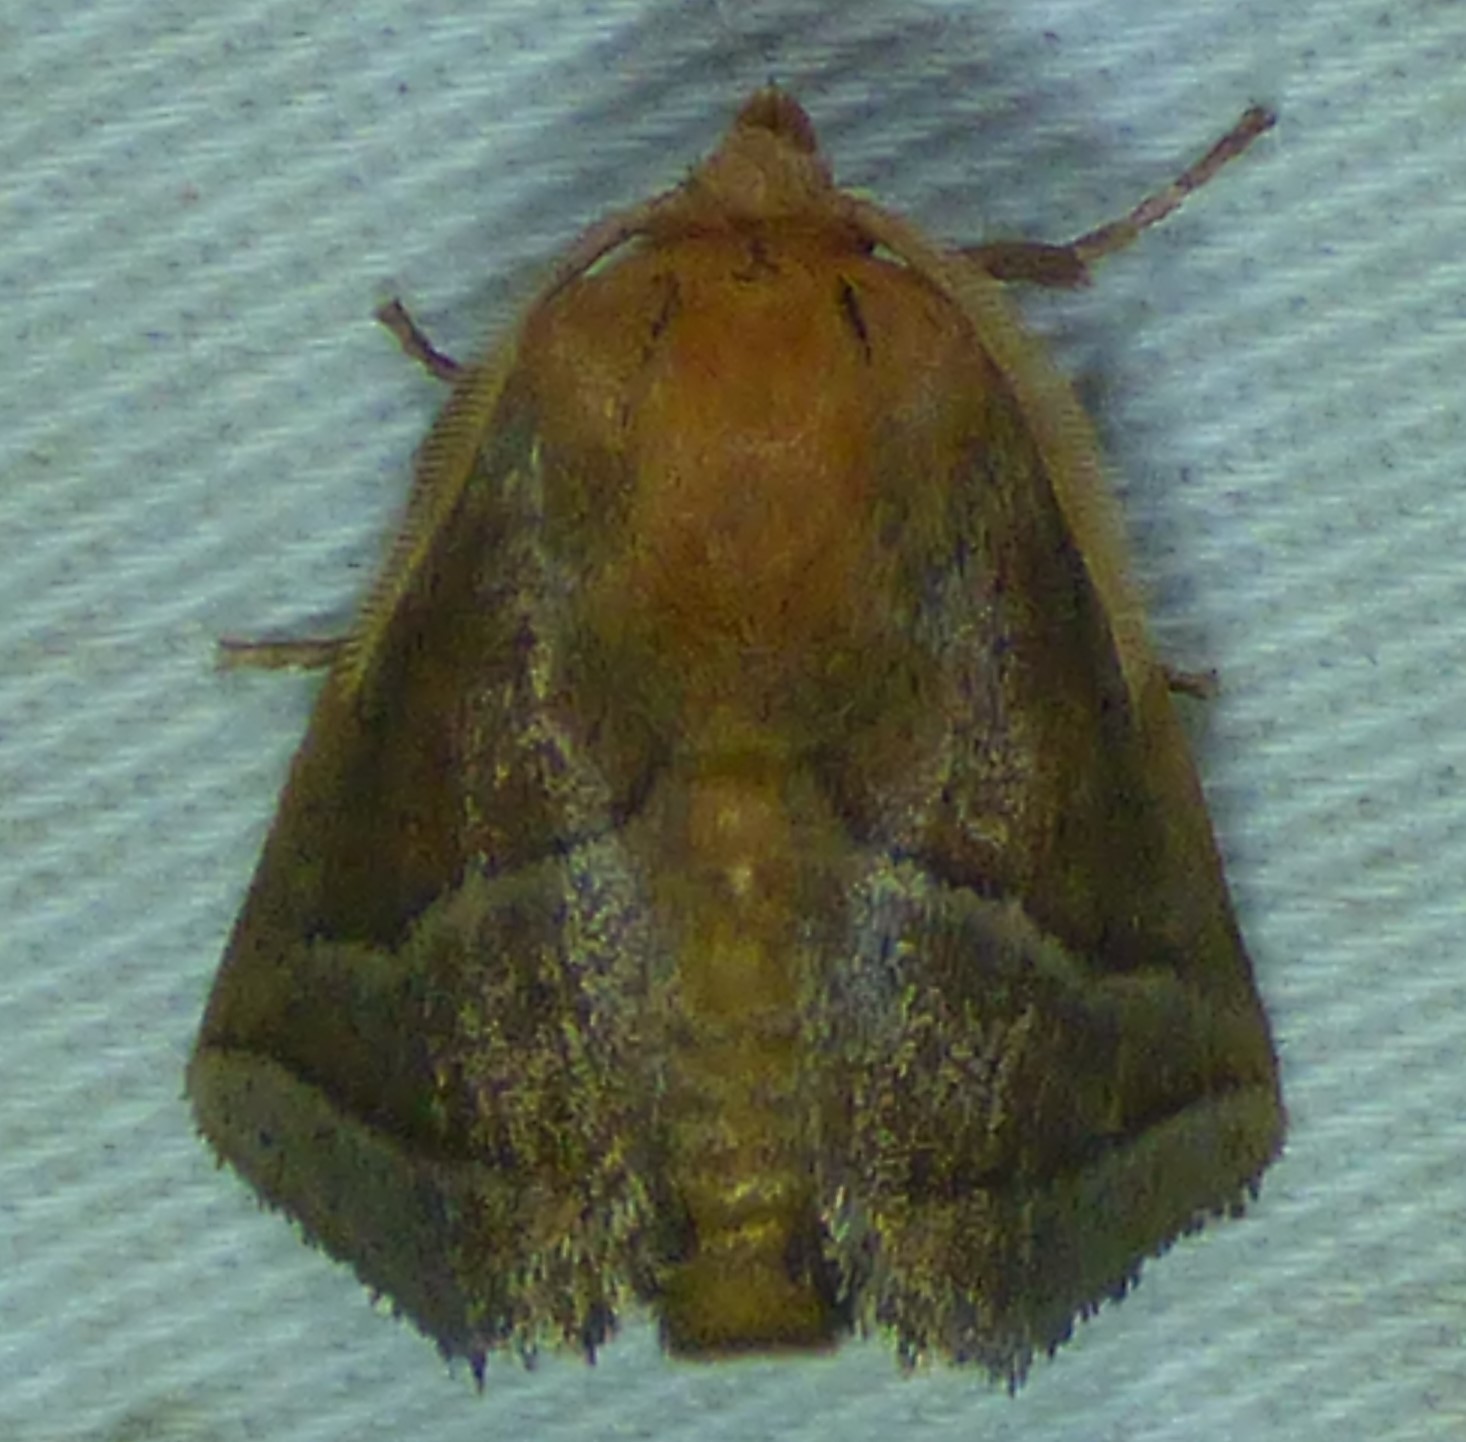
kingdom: Animalia
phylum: Arthropoda
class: Insecta
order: Lepidoptera
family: Limacodidae
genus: Natada
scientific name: Natada nasoni
